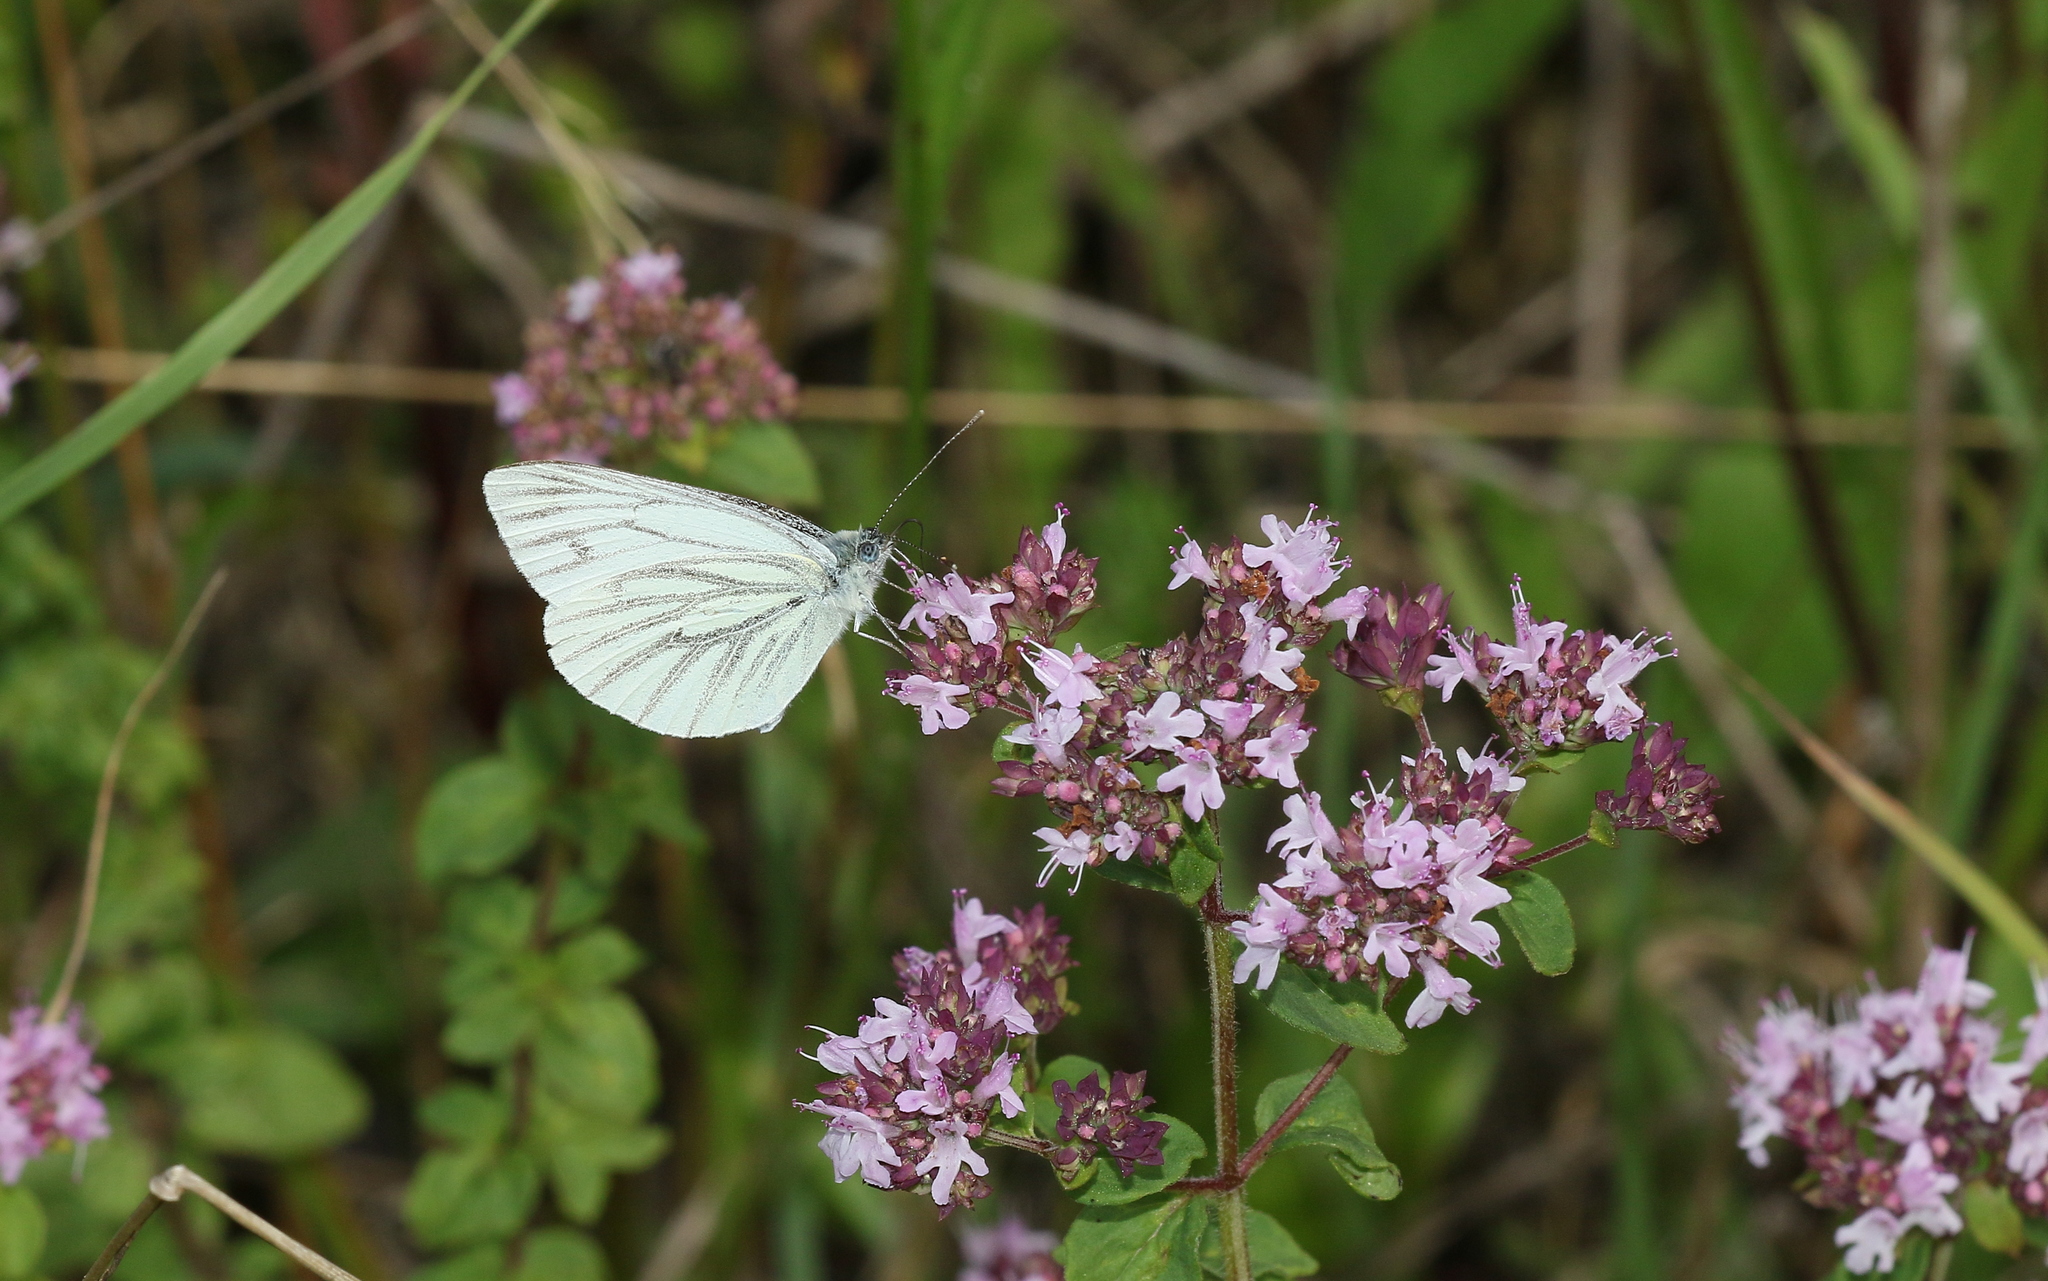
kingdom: Animalia
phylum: Arthropoda
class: Insecta
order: Lepidoptera
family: Pieridae
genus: Pieris
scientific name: Pieris napi
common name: Green-veined white
